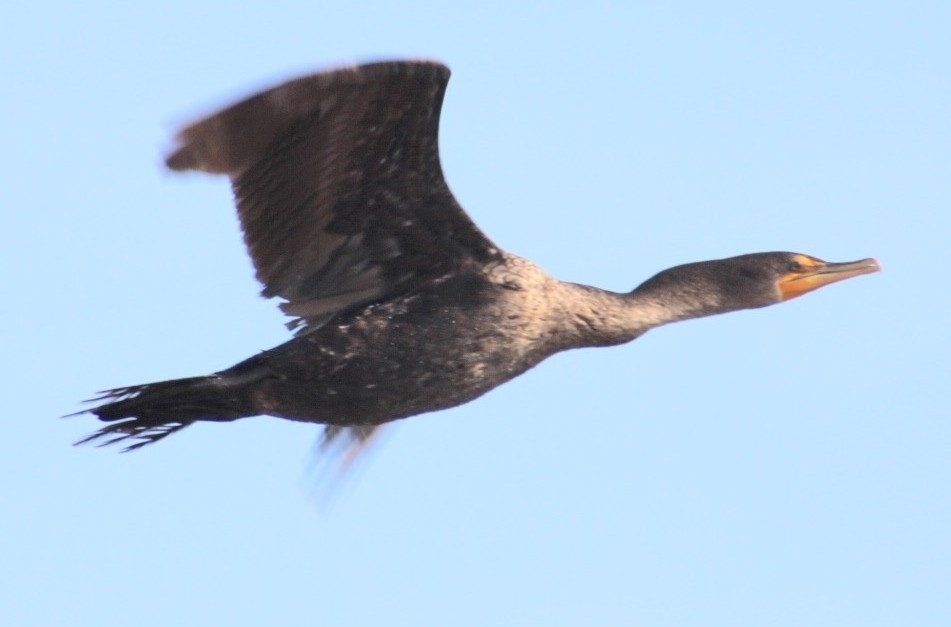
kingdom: Animalia
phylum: Chordata
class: Aves
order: Suliformes
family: Phalacrocoracidae
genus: Phalacrocorax
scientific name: Phalacrocorax auritus
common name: Double-crested cormorant
